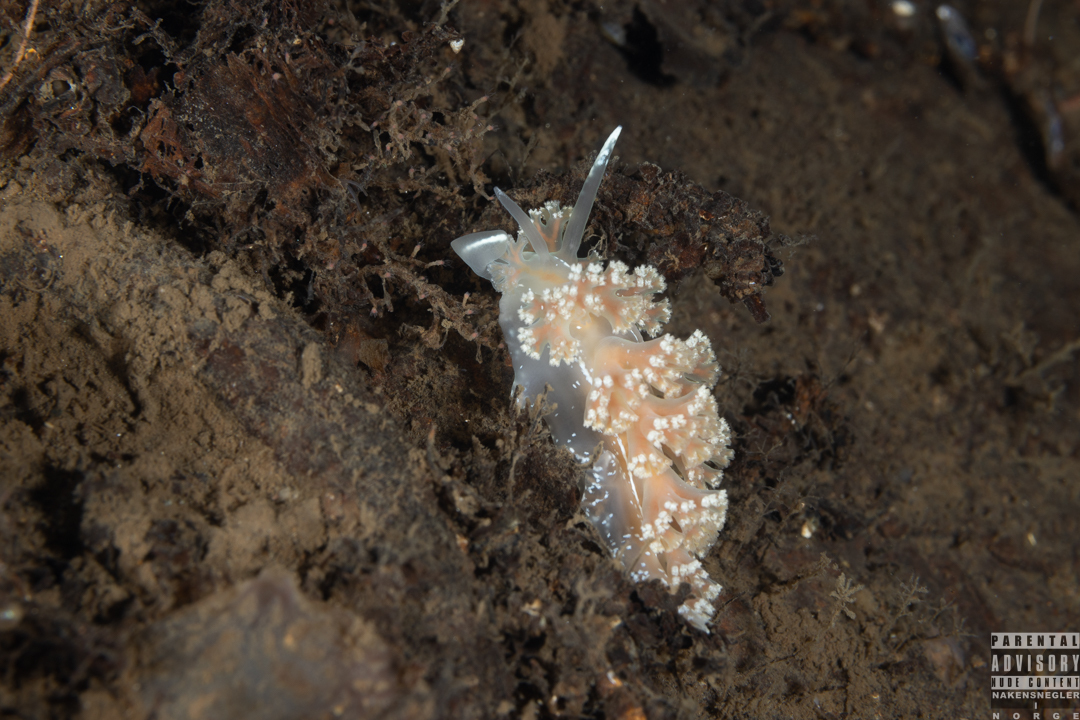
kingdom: Animalia
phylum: Mollusca
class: Gastropoda
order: Nudibranchia
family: Heroidae
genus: Hero
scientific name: Hero formosa
